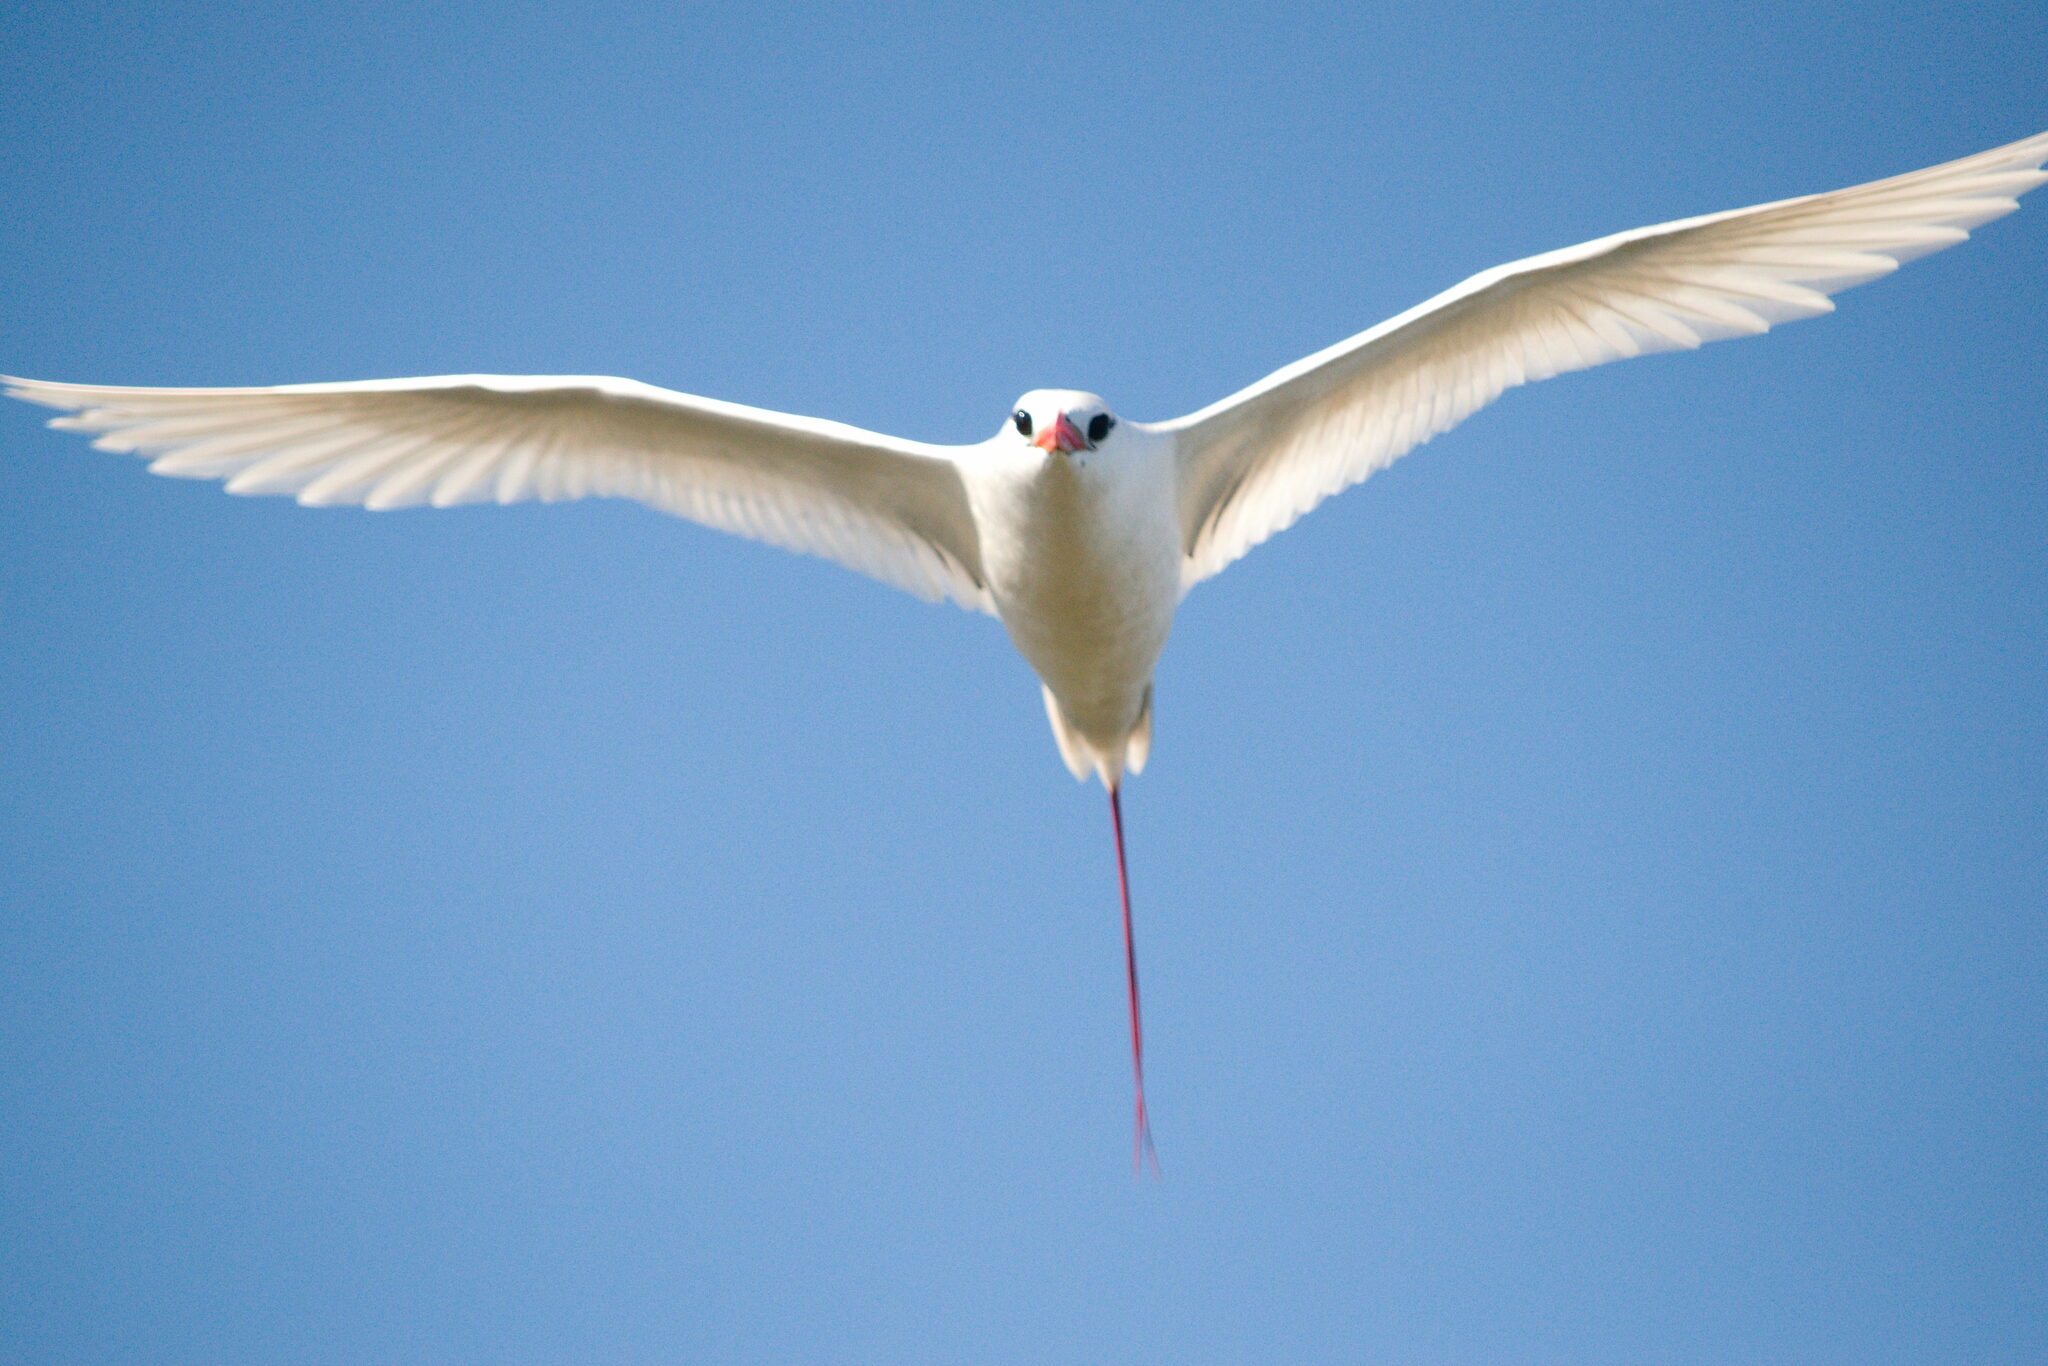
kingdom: Animalia
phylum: Chordata
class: Aves
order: Phaethontiformes
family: Phaethontidae
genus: Phaethon
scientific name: Phaethon rubricauda
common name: Red-tailed tropicbird
